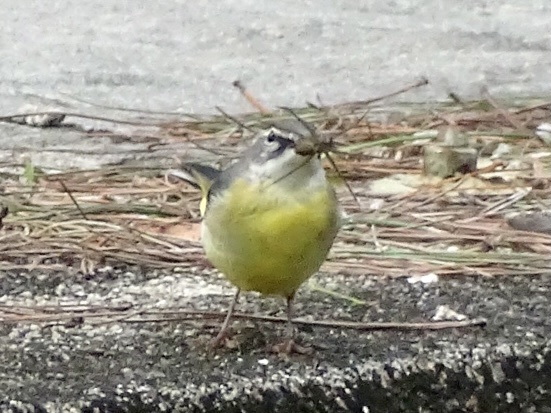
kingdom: Animalia
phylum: Chordata
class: Aves
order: Passeriformes
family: Motacillidae
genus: Motacilla
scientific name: Motacilla cinerea
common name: Grey wagtail
